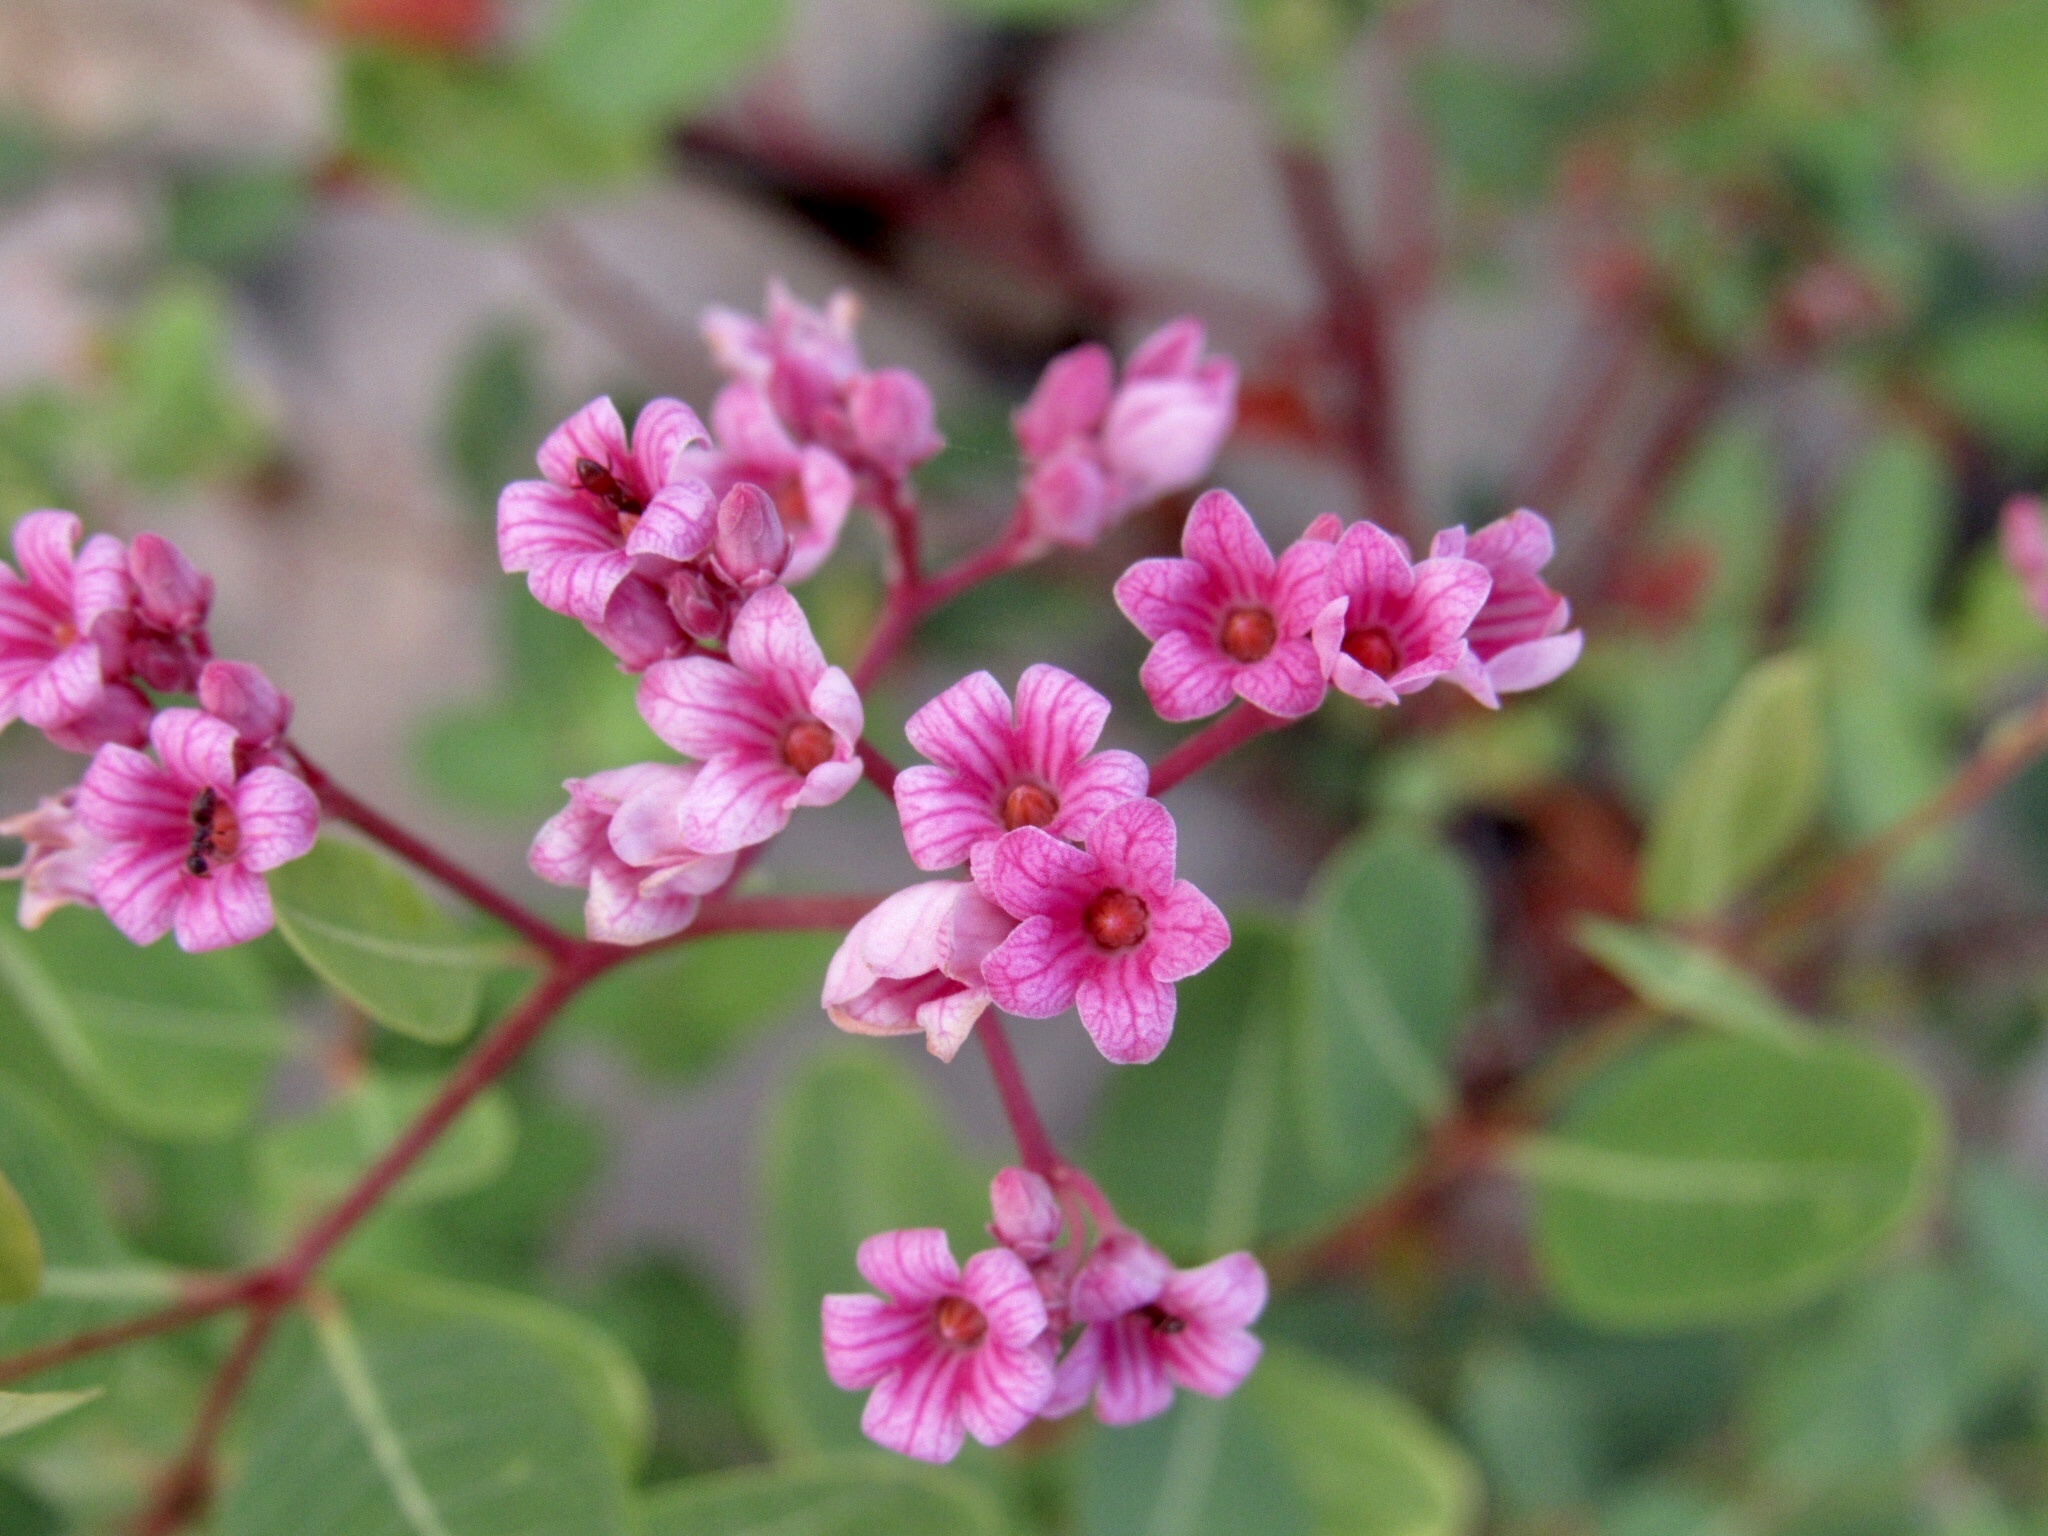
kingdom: Plantae
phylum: Tracheophyta
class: Magnoliopsida
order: Gentianales
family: Apocynaceae
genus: Poacynum
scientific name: Poacynum venetum
